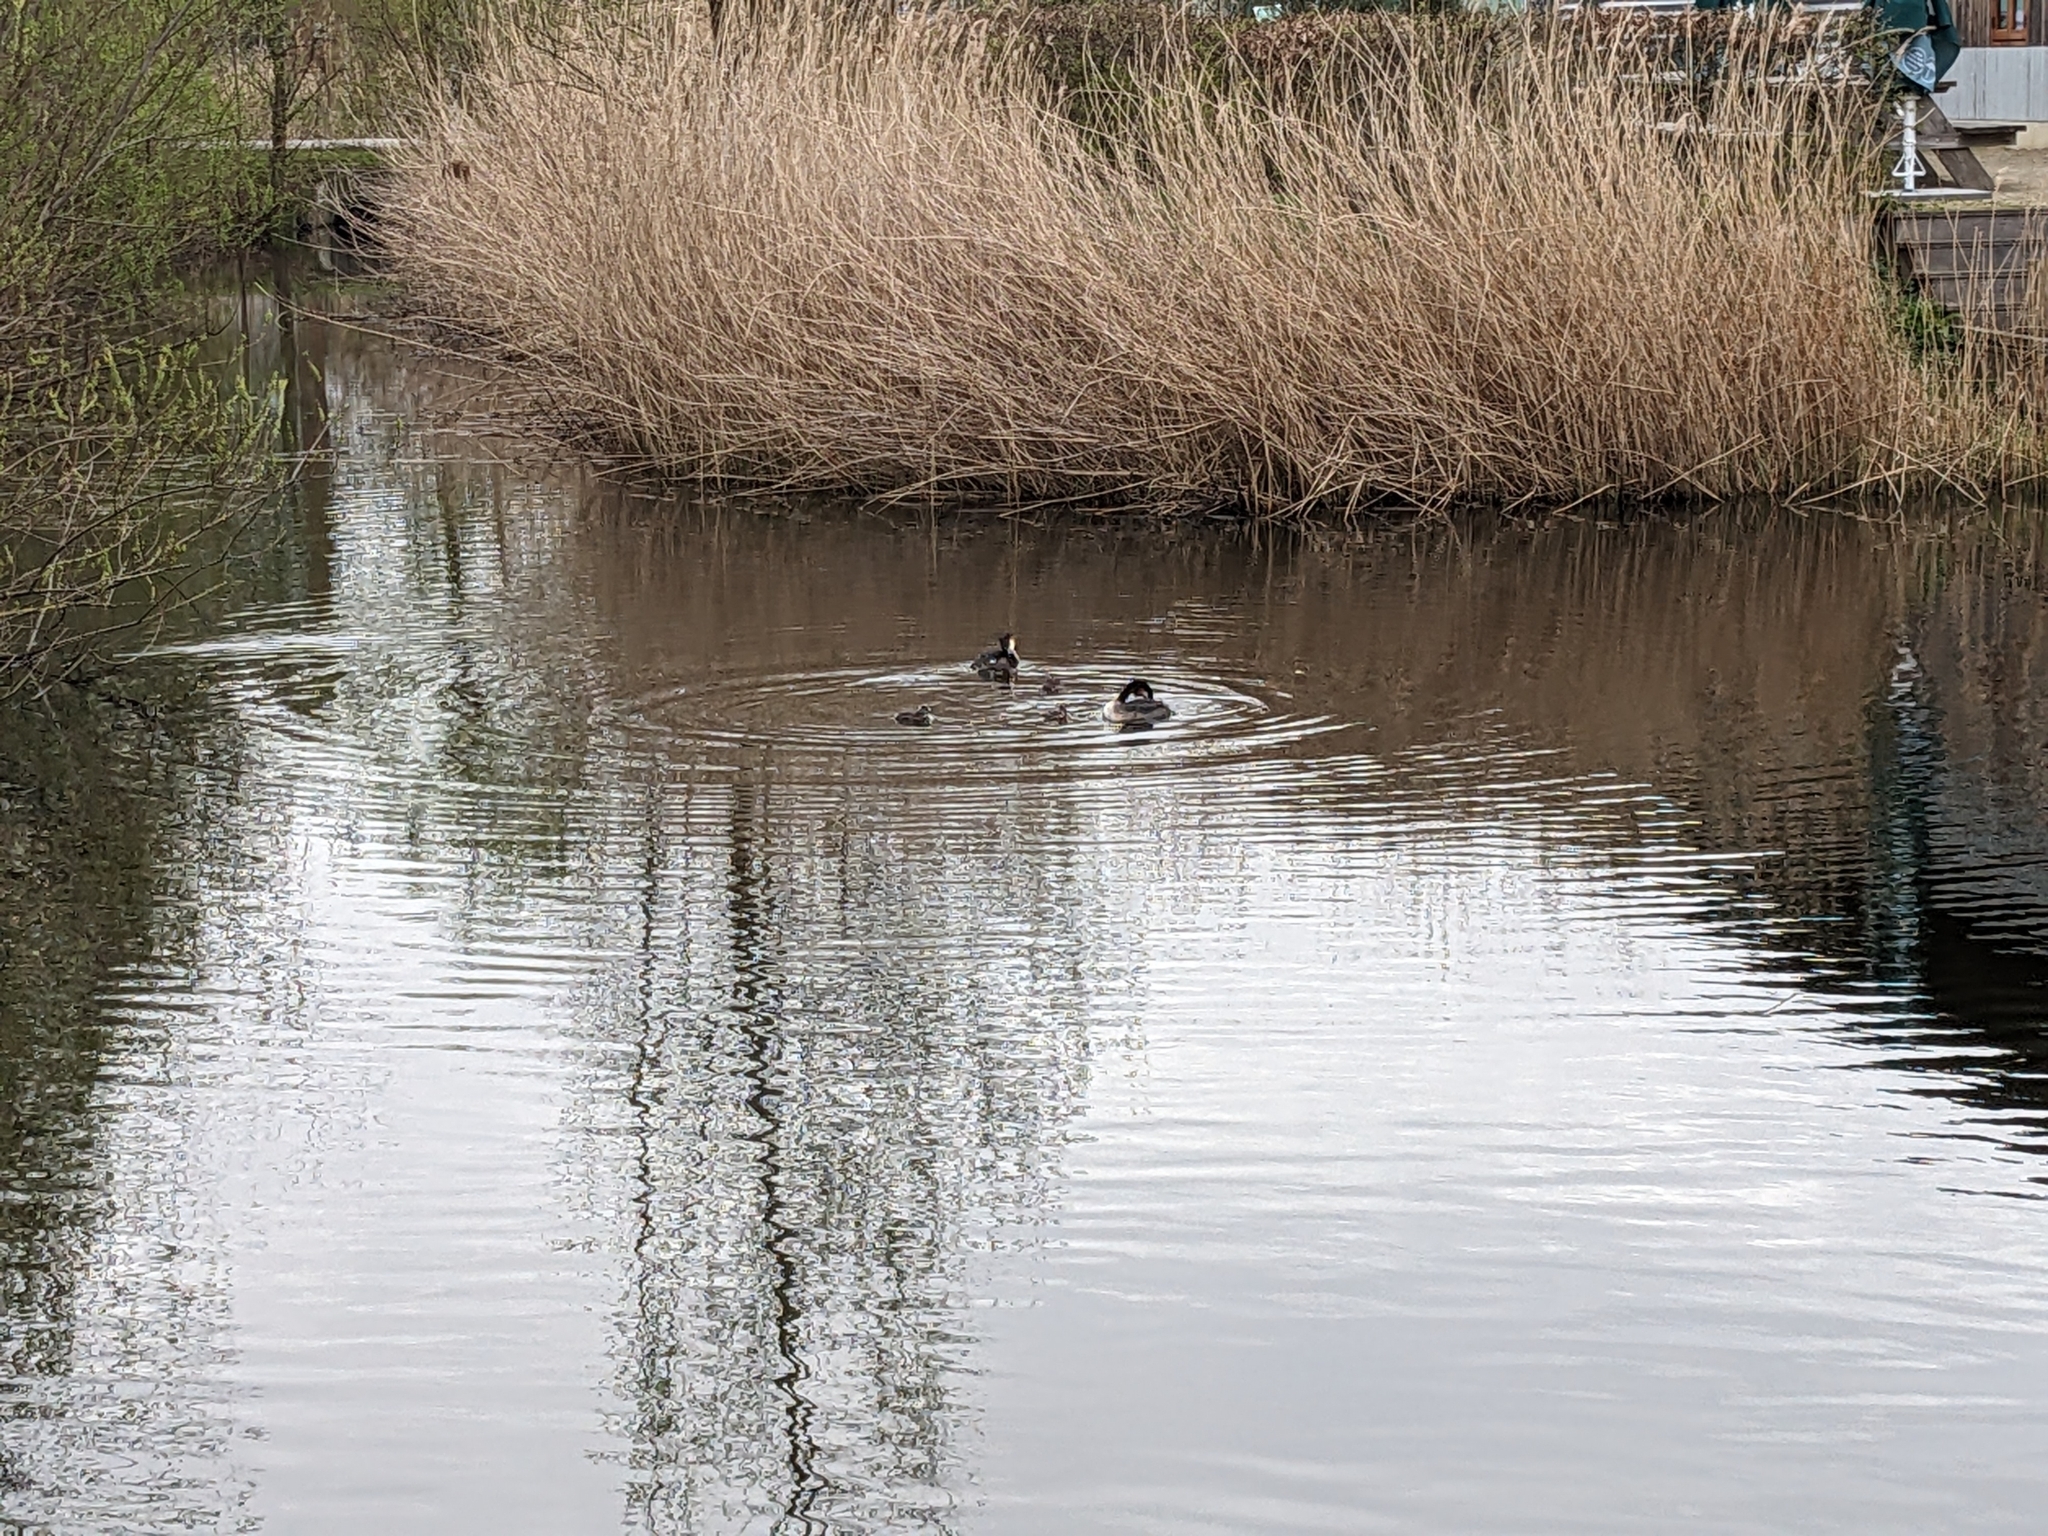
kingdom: Animalia
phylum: Chordata
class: Aves
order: Podicipediformes
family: Podicipedidae
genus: Podiceps
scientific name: Podiceps cristatus
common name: Great crested grebe
